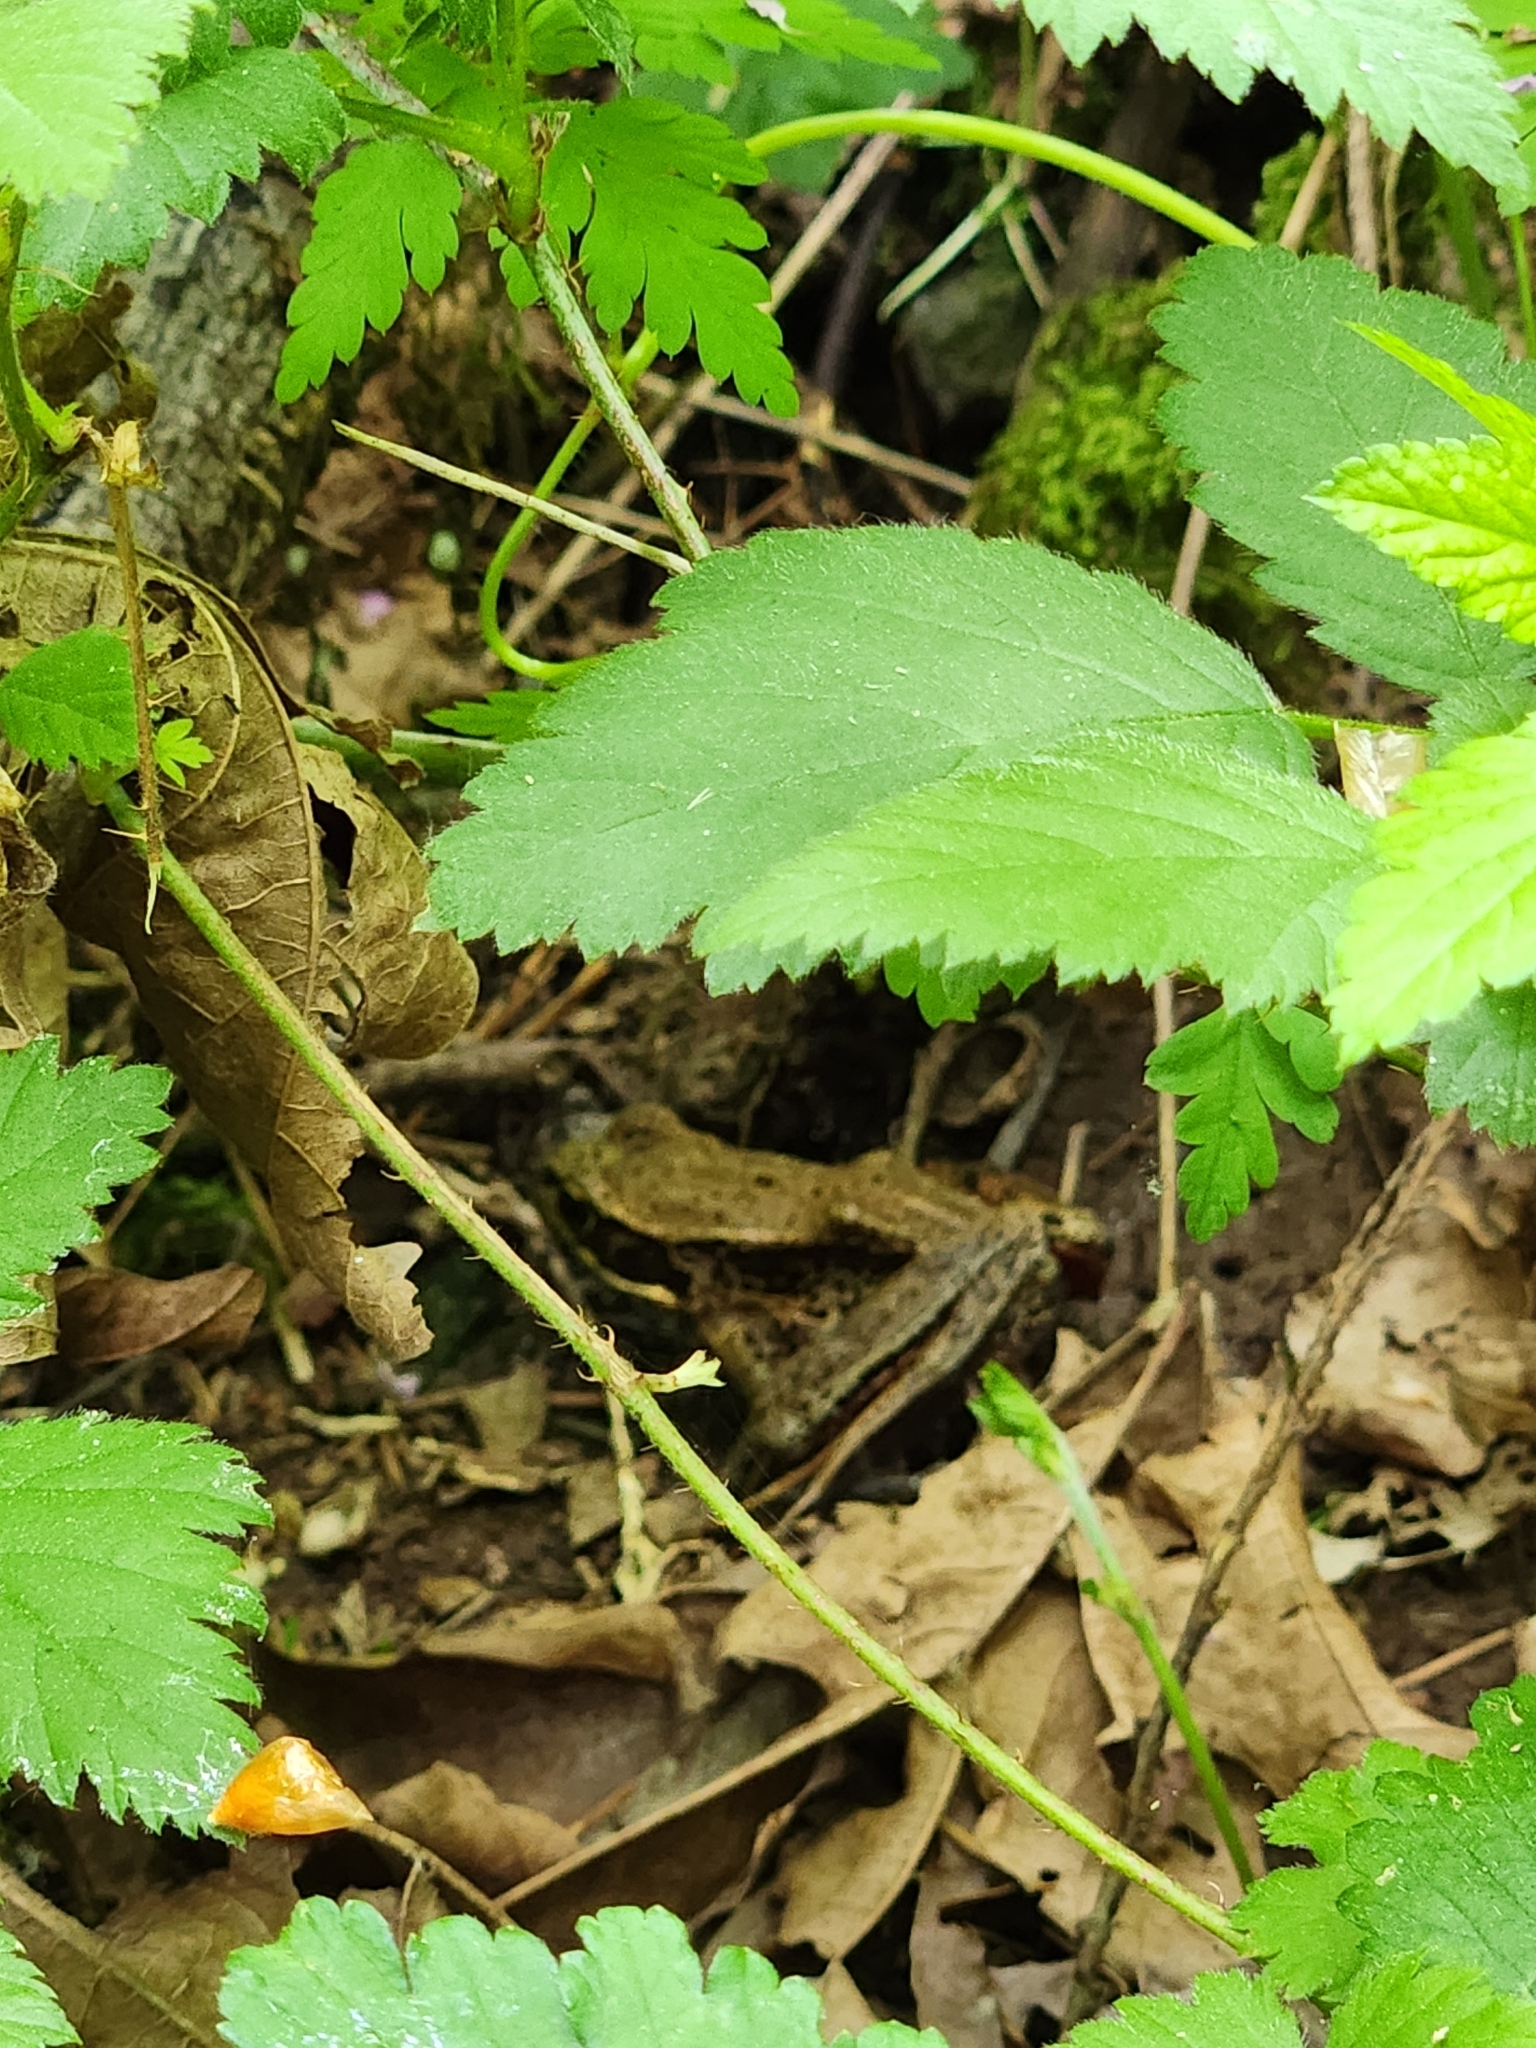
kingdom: Animalia
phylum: Chordata
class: Amphibia
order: Anura
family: Ranidae
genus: Rana
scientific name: Rana aurora
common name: Red-legged frog
